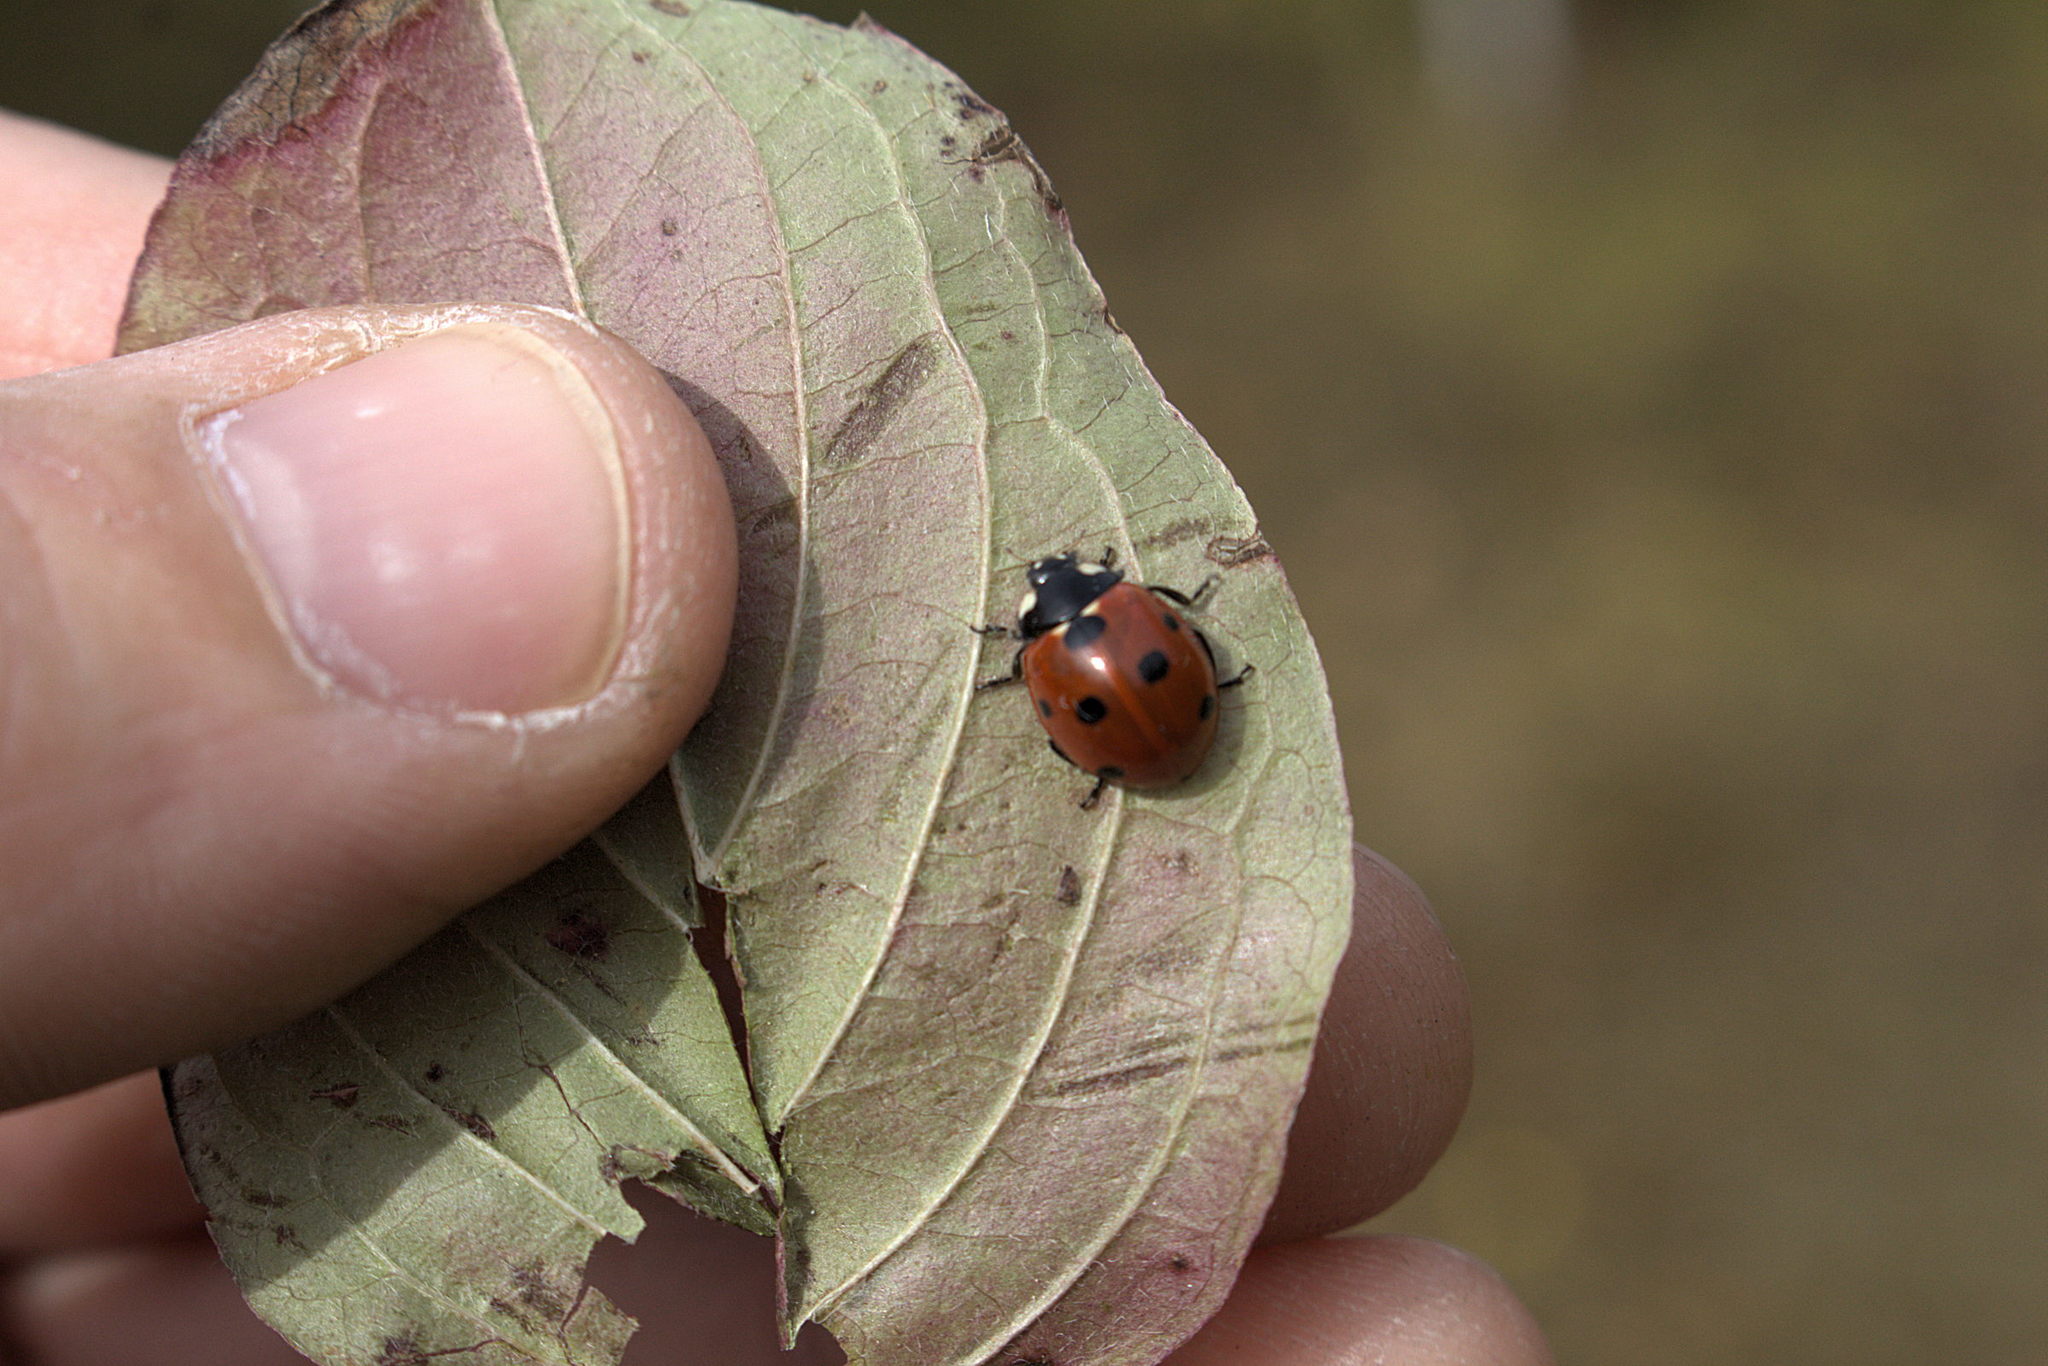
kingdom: Animalia
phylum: Arthropoda
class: Insecta
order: Coleoptera
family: Coccinellidae
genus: Coccinella
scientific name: Coccinella septempunctata
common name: Sevenspotted lady beetle
